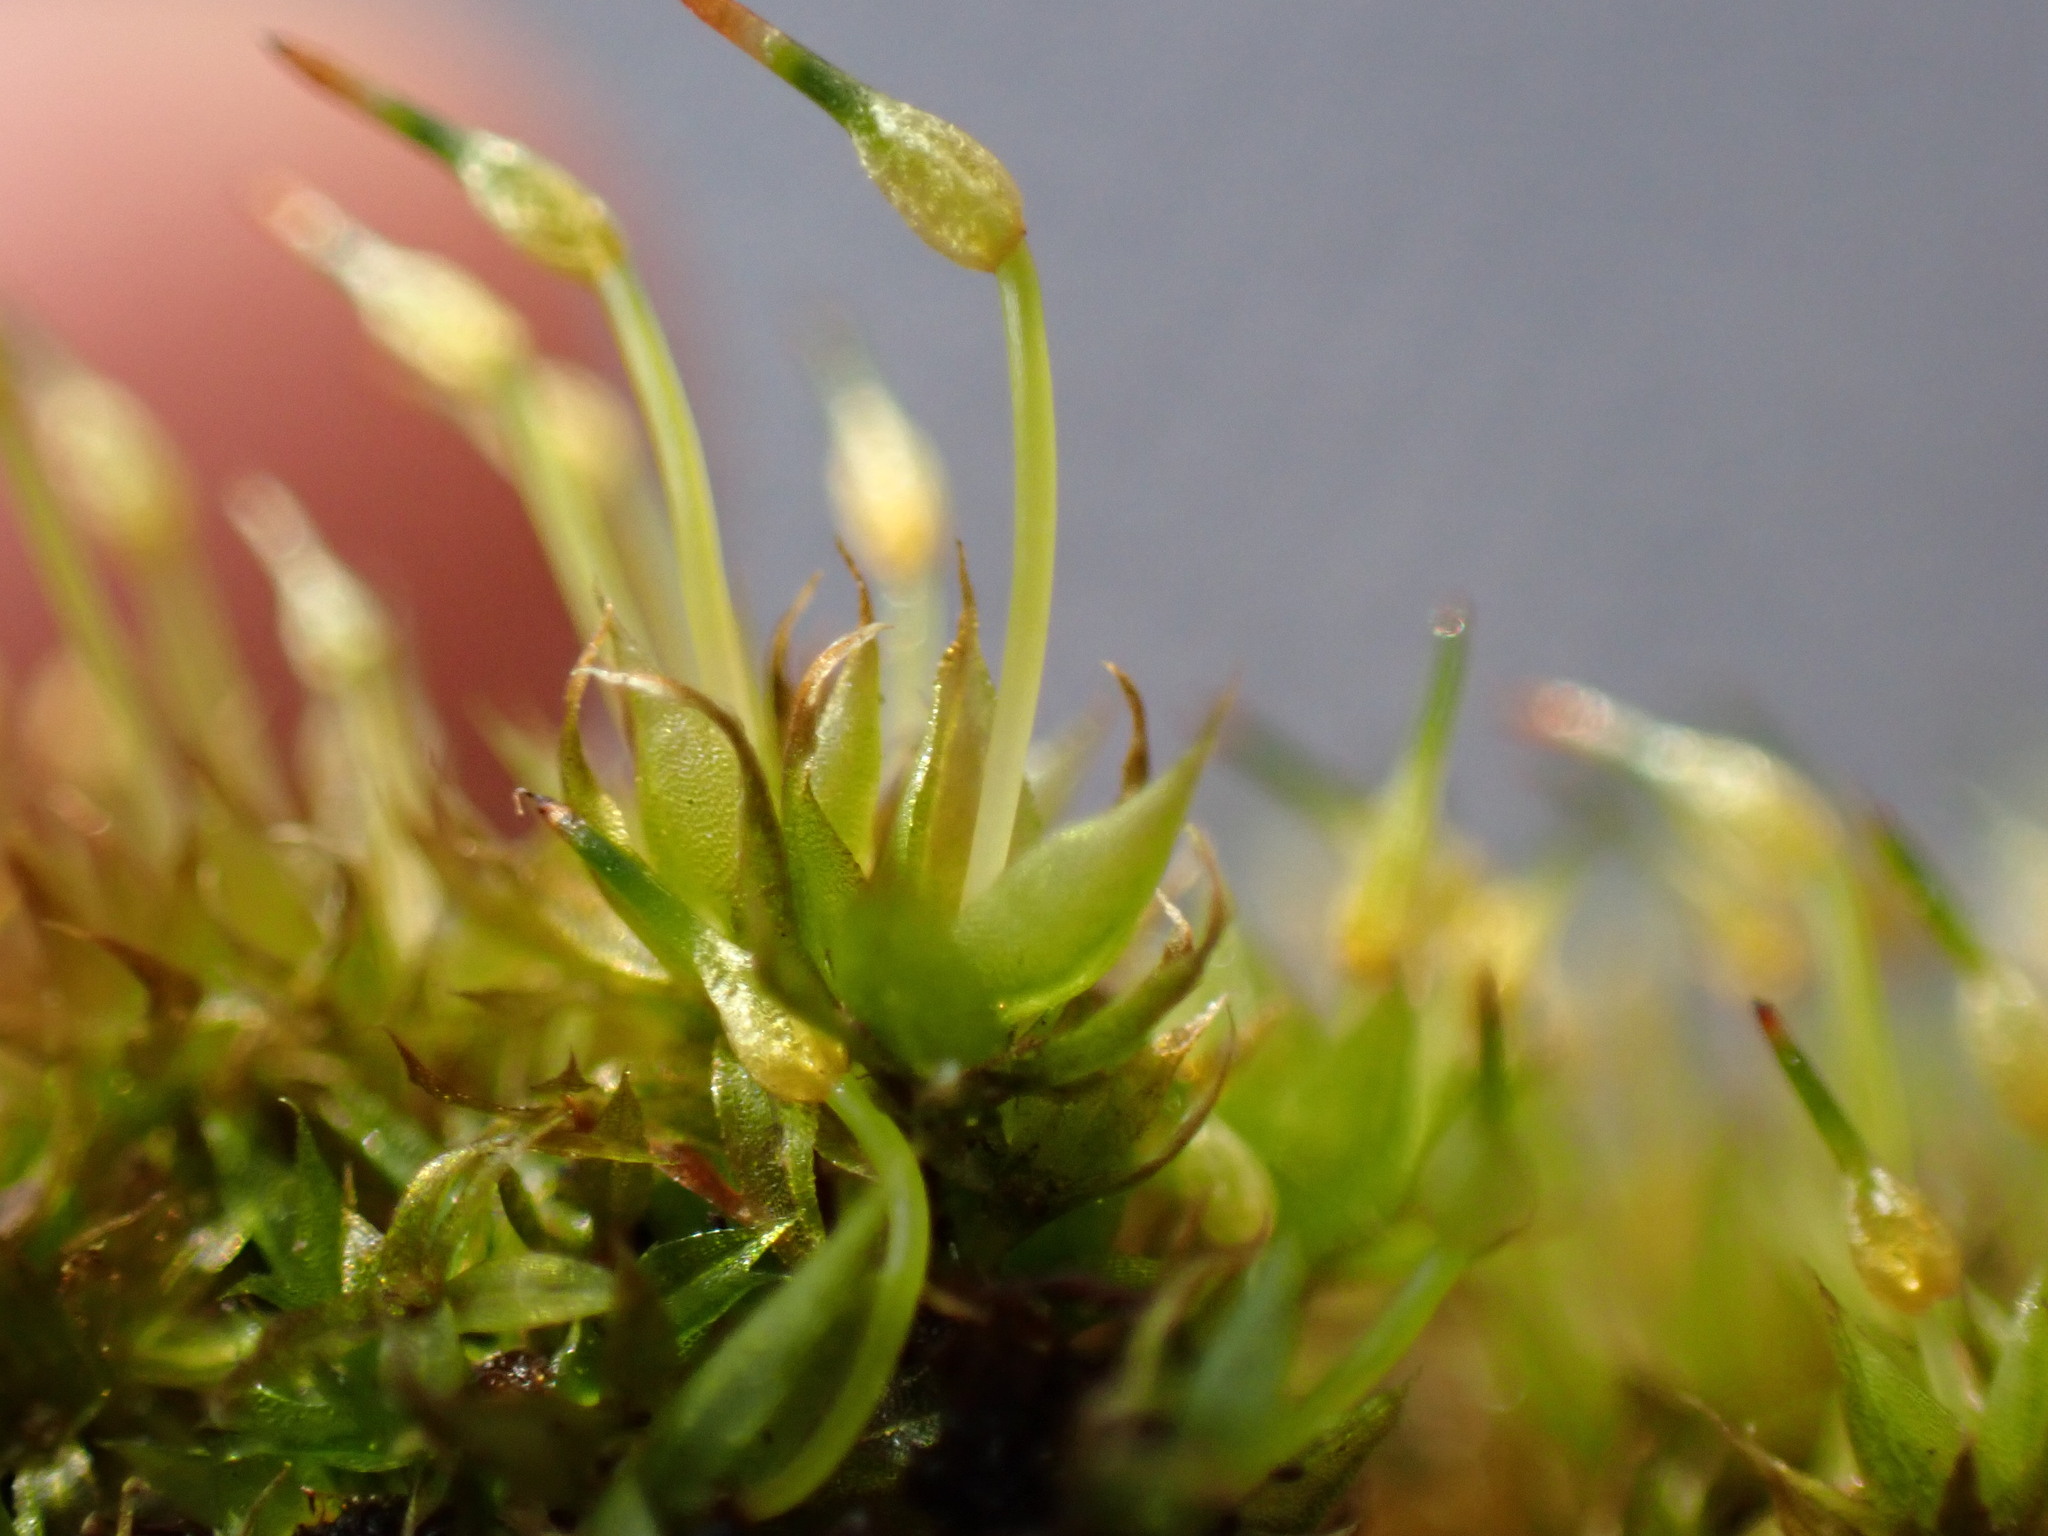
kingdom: Plantae
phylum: Bryophyta
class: Bryopsida
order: Funariales
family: Funariaceae
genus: Physcomitrium
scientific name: Physcomitrium pyriforme
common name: Common bladder-moss
